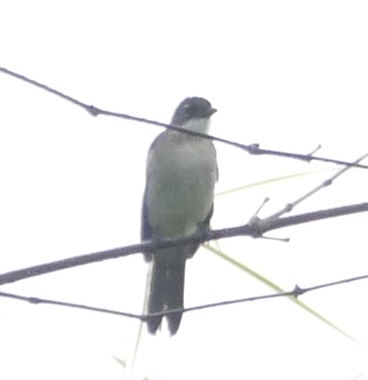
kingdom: Animalia
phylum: Chordata
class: Aves
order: Passeriformes
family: Pycnonotidae
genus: Chlorocichla
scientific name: Chlorocichla simplex
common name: Simple greenbul
